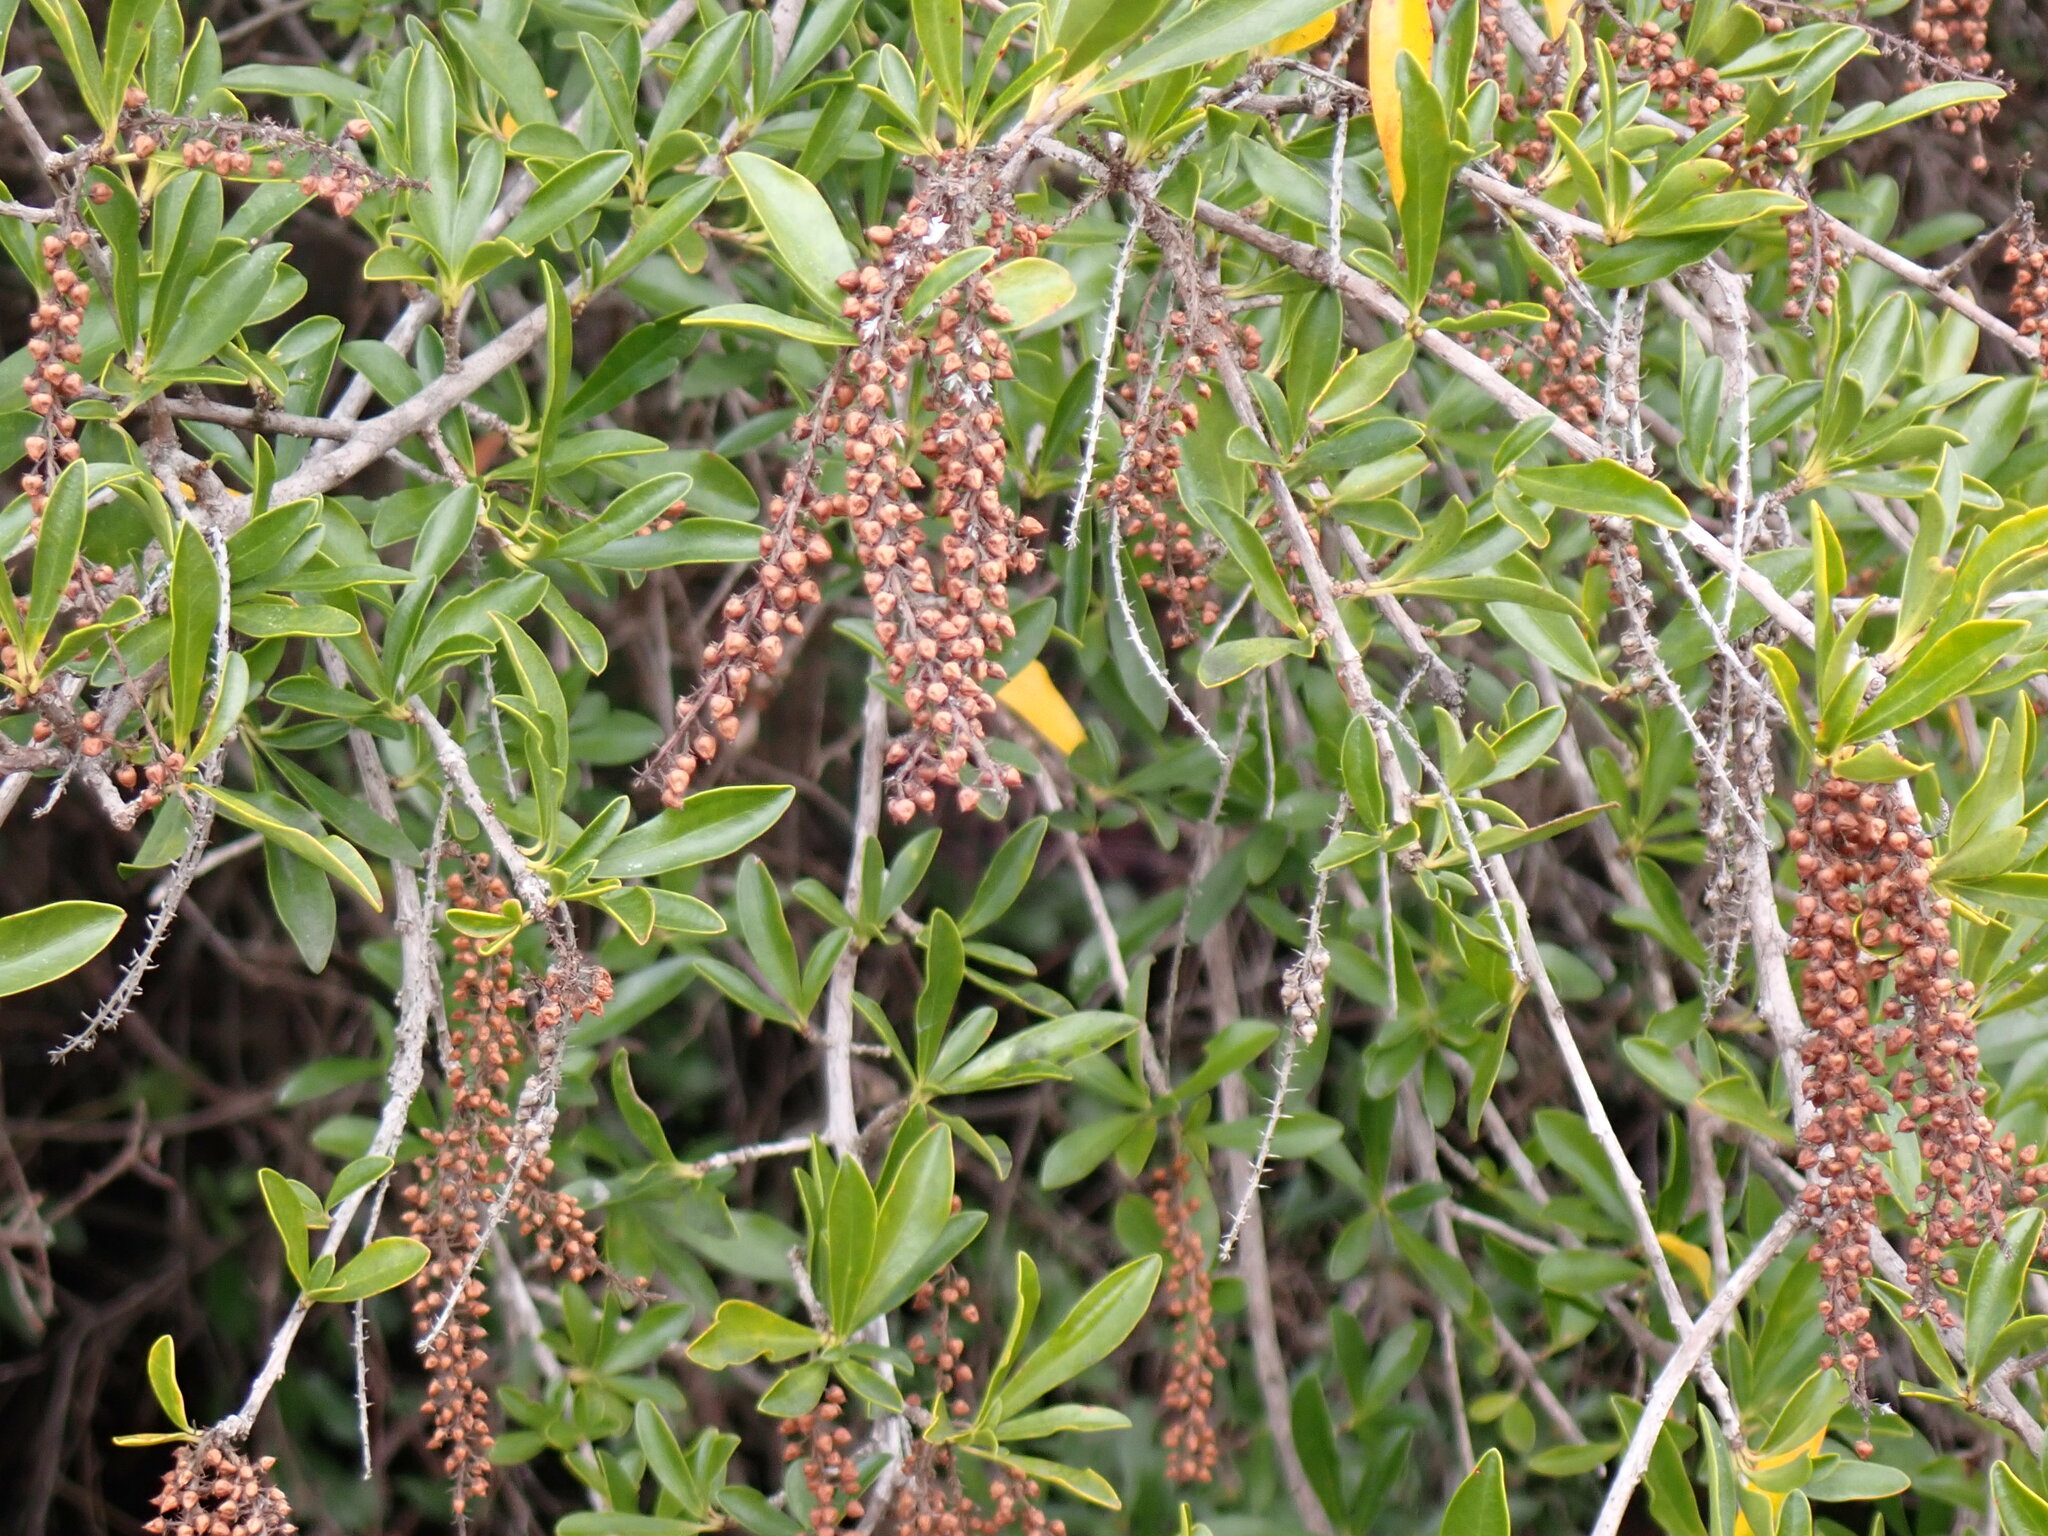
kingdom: Plantae
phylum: Tracheophyta
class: Magnoliopsida
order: Ericales
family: Cyrillaceae
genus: Cyrilla
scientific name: Cyrilla racemiflora
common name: Black titi
